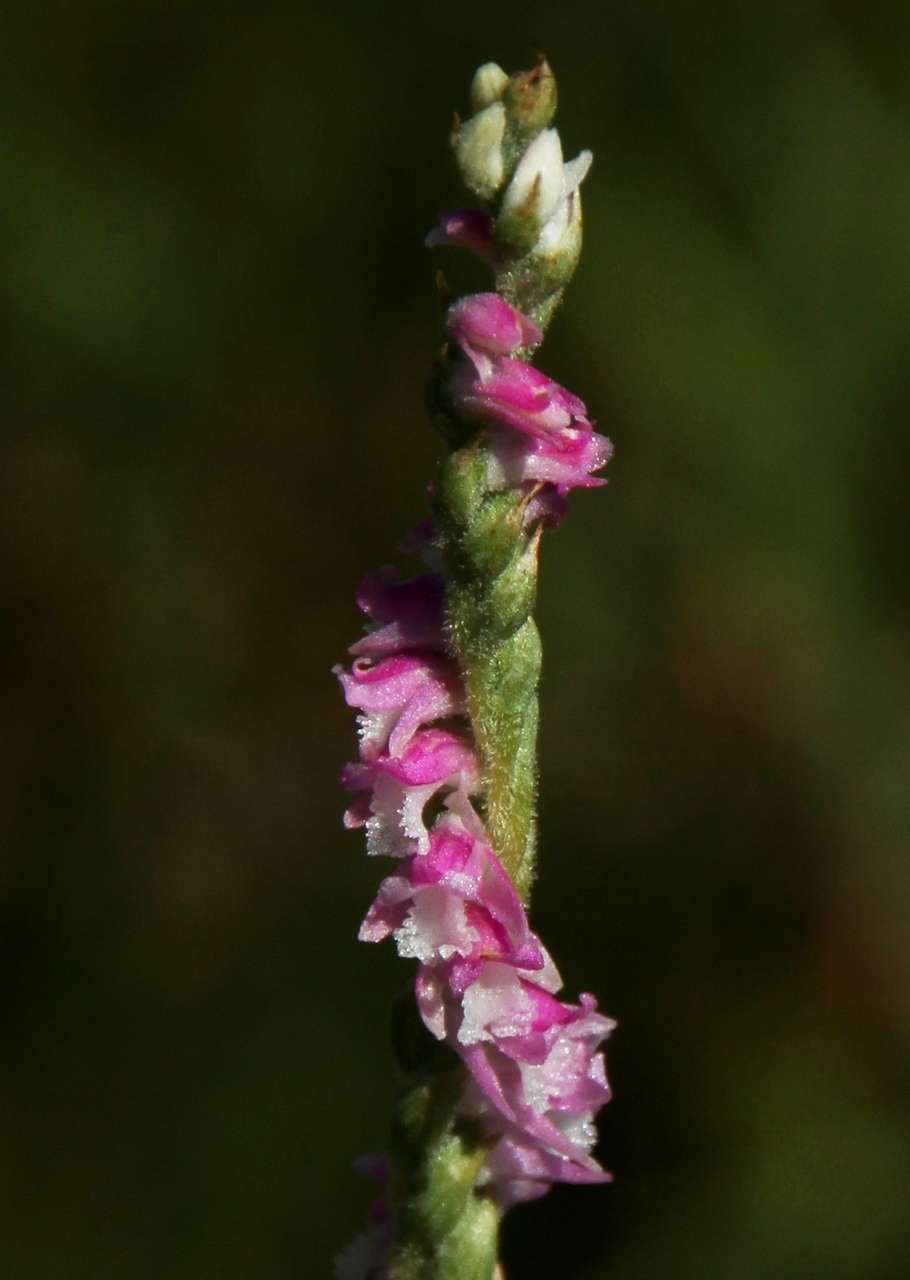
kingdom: Plantae
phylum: Tracheophyta
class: Liliopsida
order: Asparagales
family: Orchidaceae
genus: Spiranthes
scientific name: Spiranthes australis
